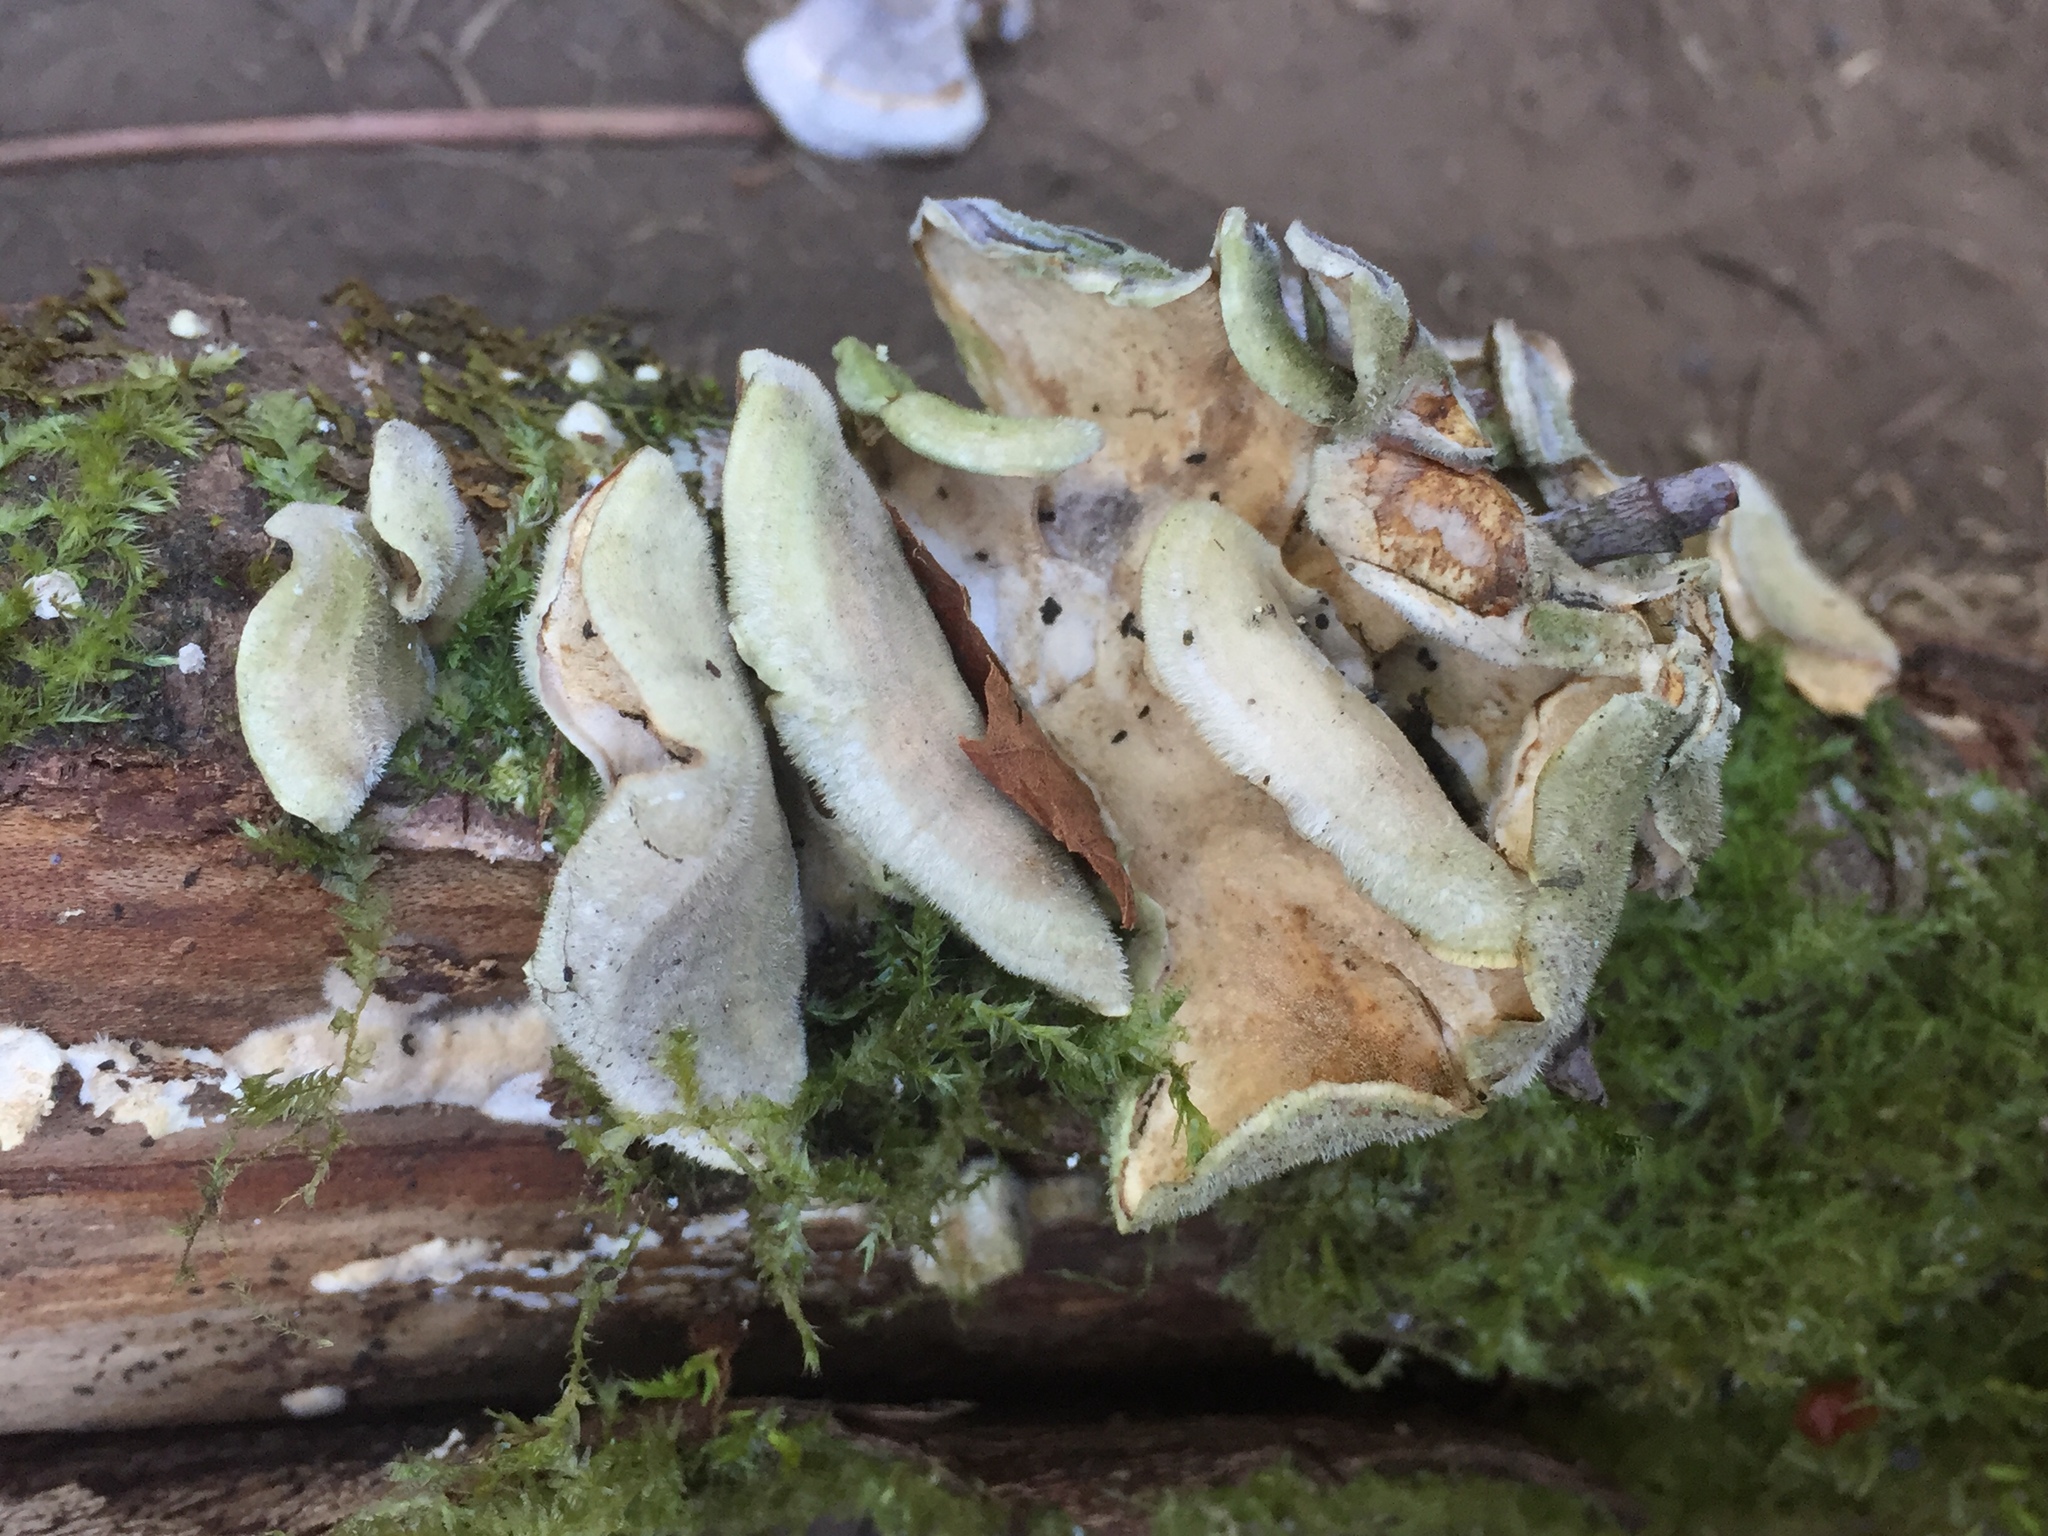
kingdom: Fungi
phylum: Basidiomycota
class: Agaricomycetes
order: Polyporales
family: Polyporaceae
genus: Trametes
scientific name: Trametes versicolor
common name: Turkeytail
